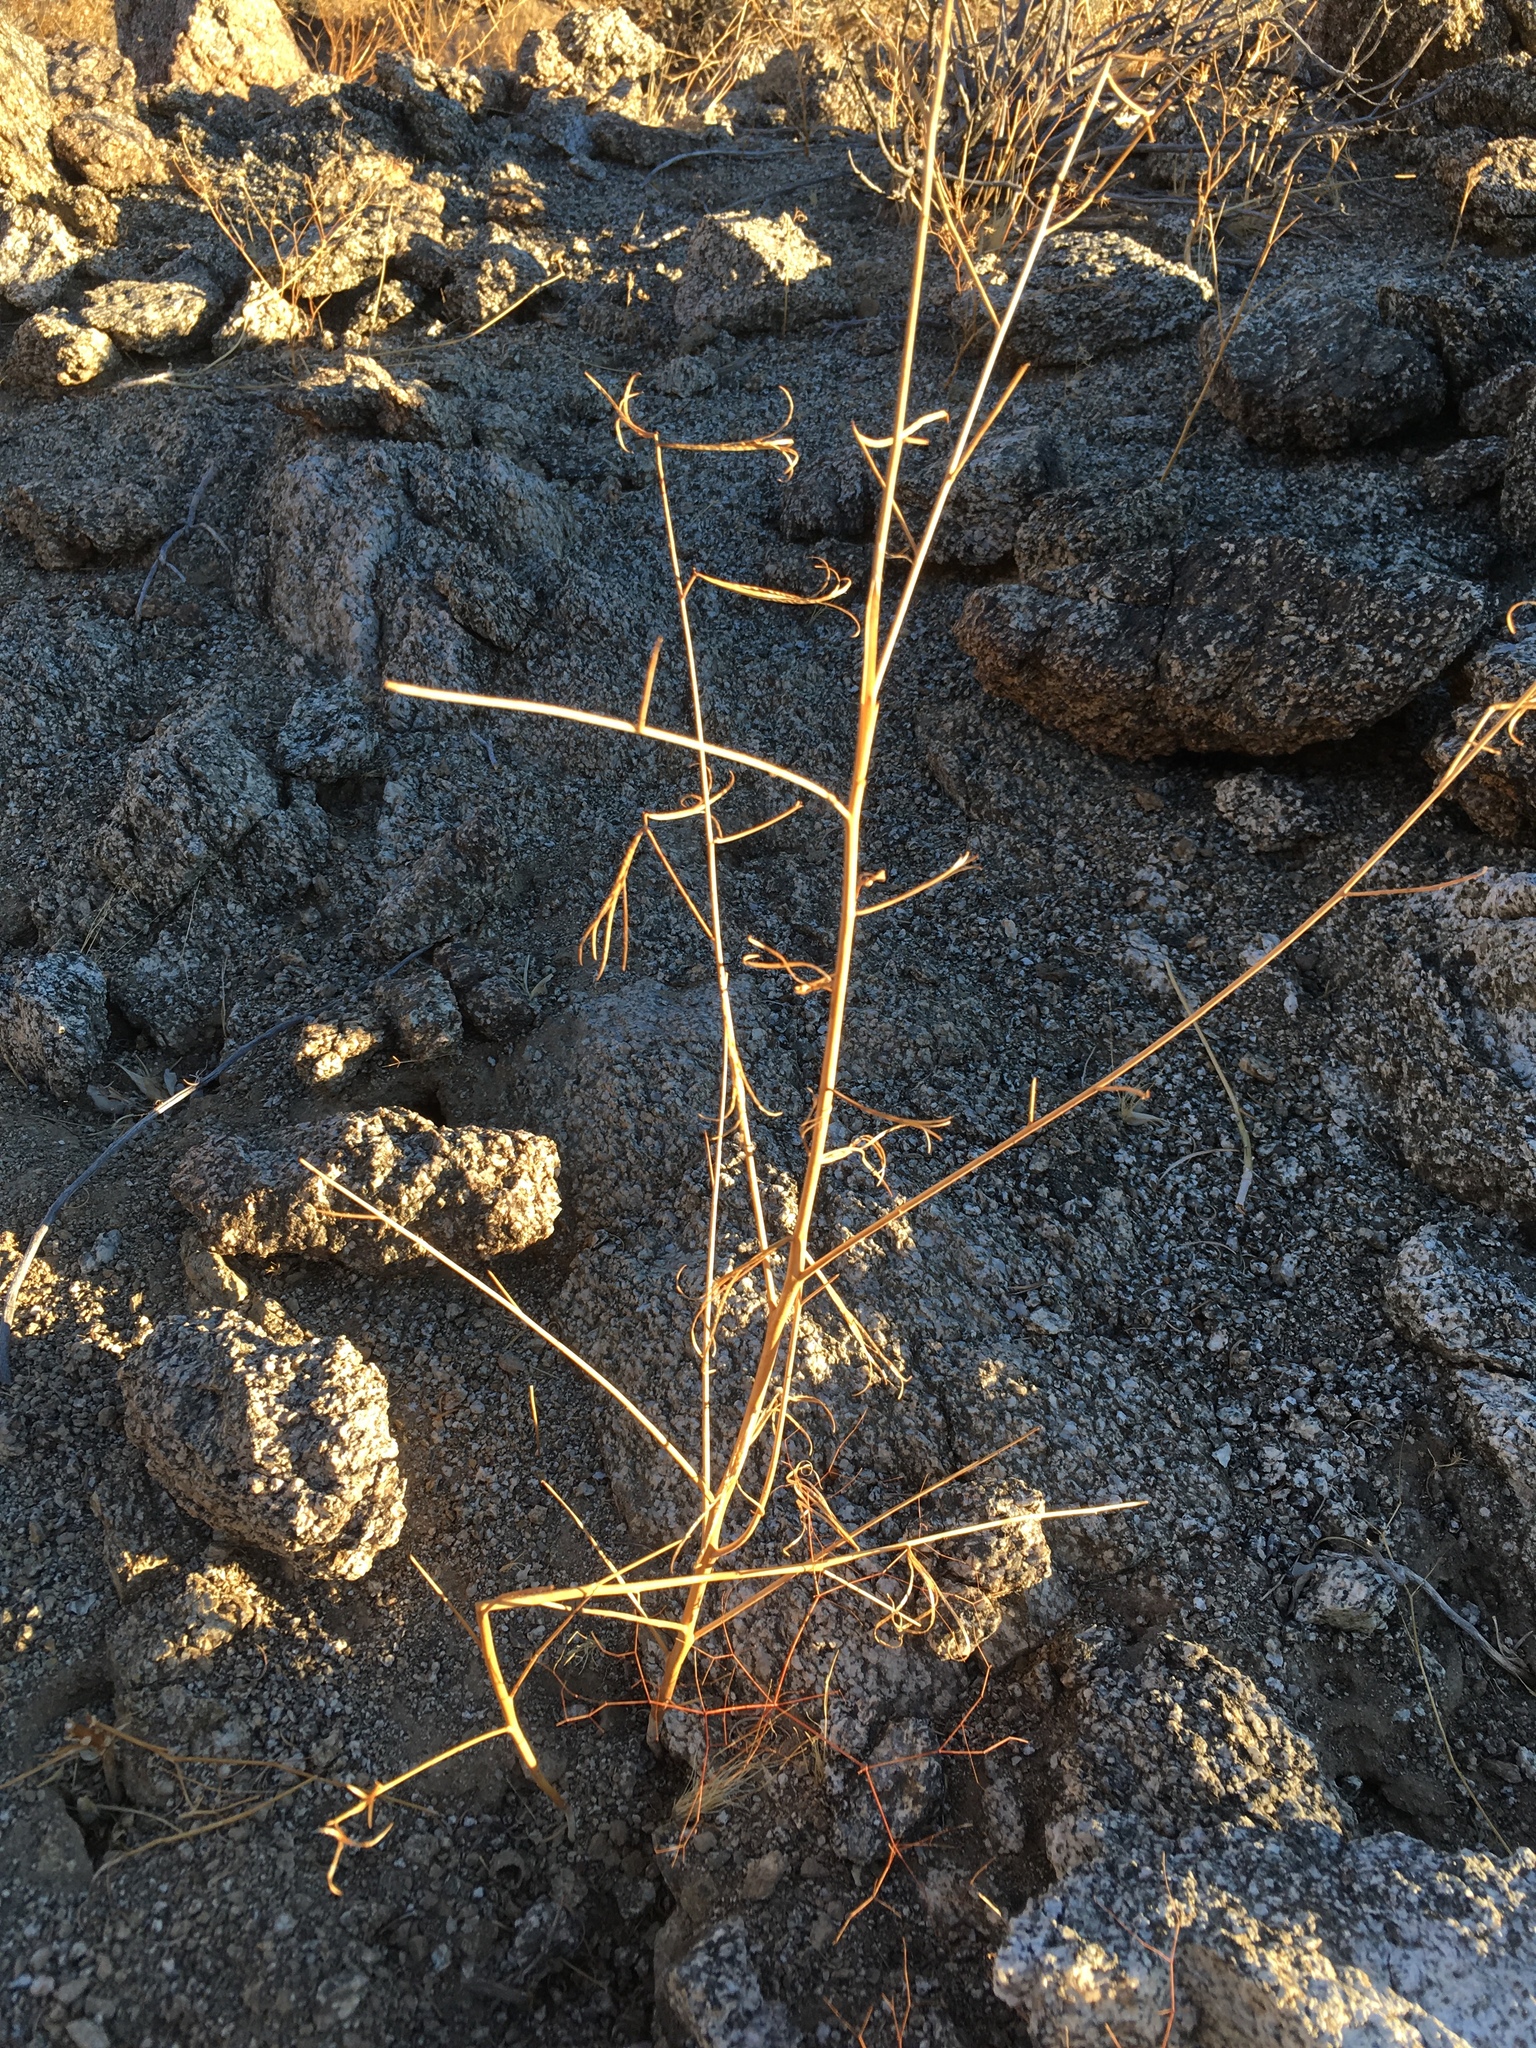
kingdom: Plantae
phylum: Tracheophyta
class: Magnoliopsida
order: Myrtales
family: Onagraceae
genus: Eulobus
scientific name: Eulobus californicus
